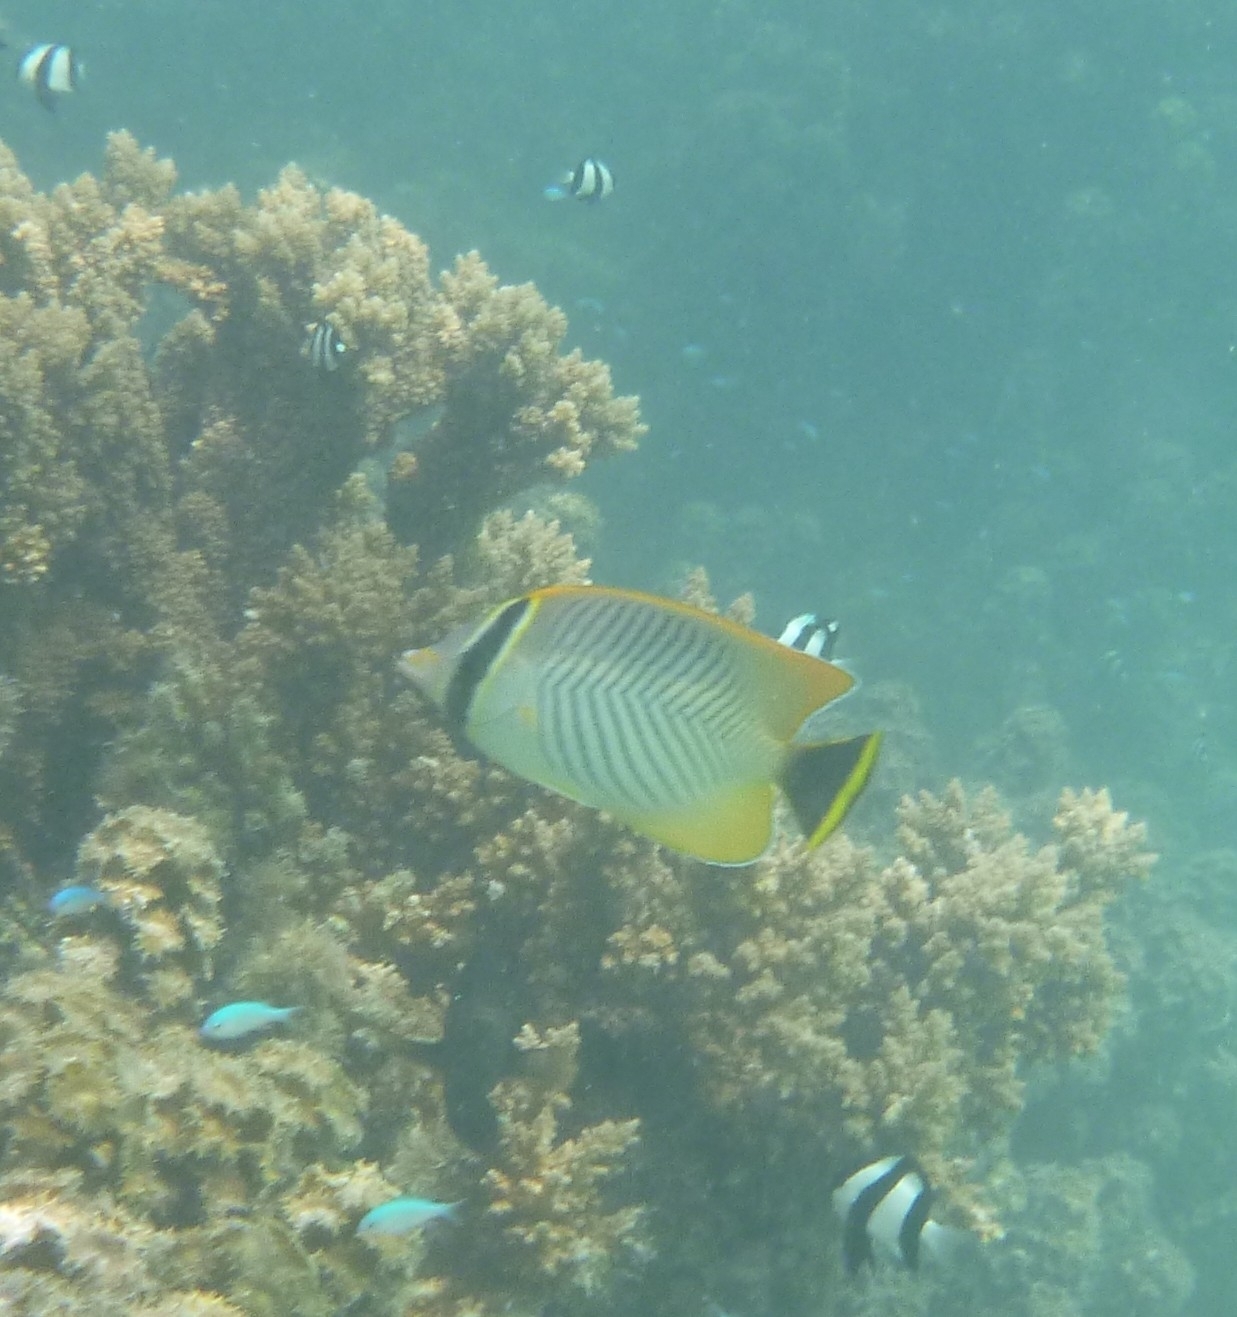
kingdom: Animalia
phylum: Chordata
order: Perciformes
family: Chaetodontidae
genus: Chaetodon
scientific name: Chaetodon trifascialis
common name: Chevroned butterflyfish
